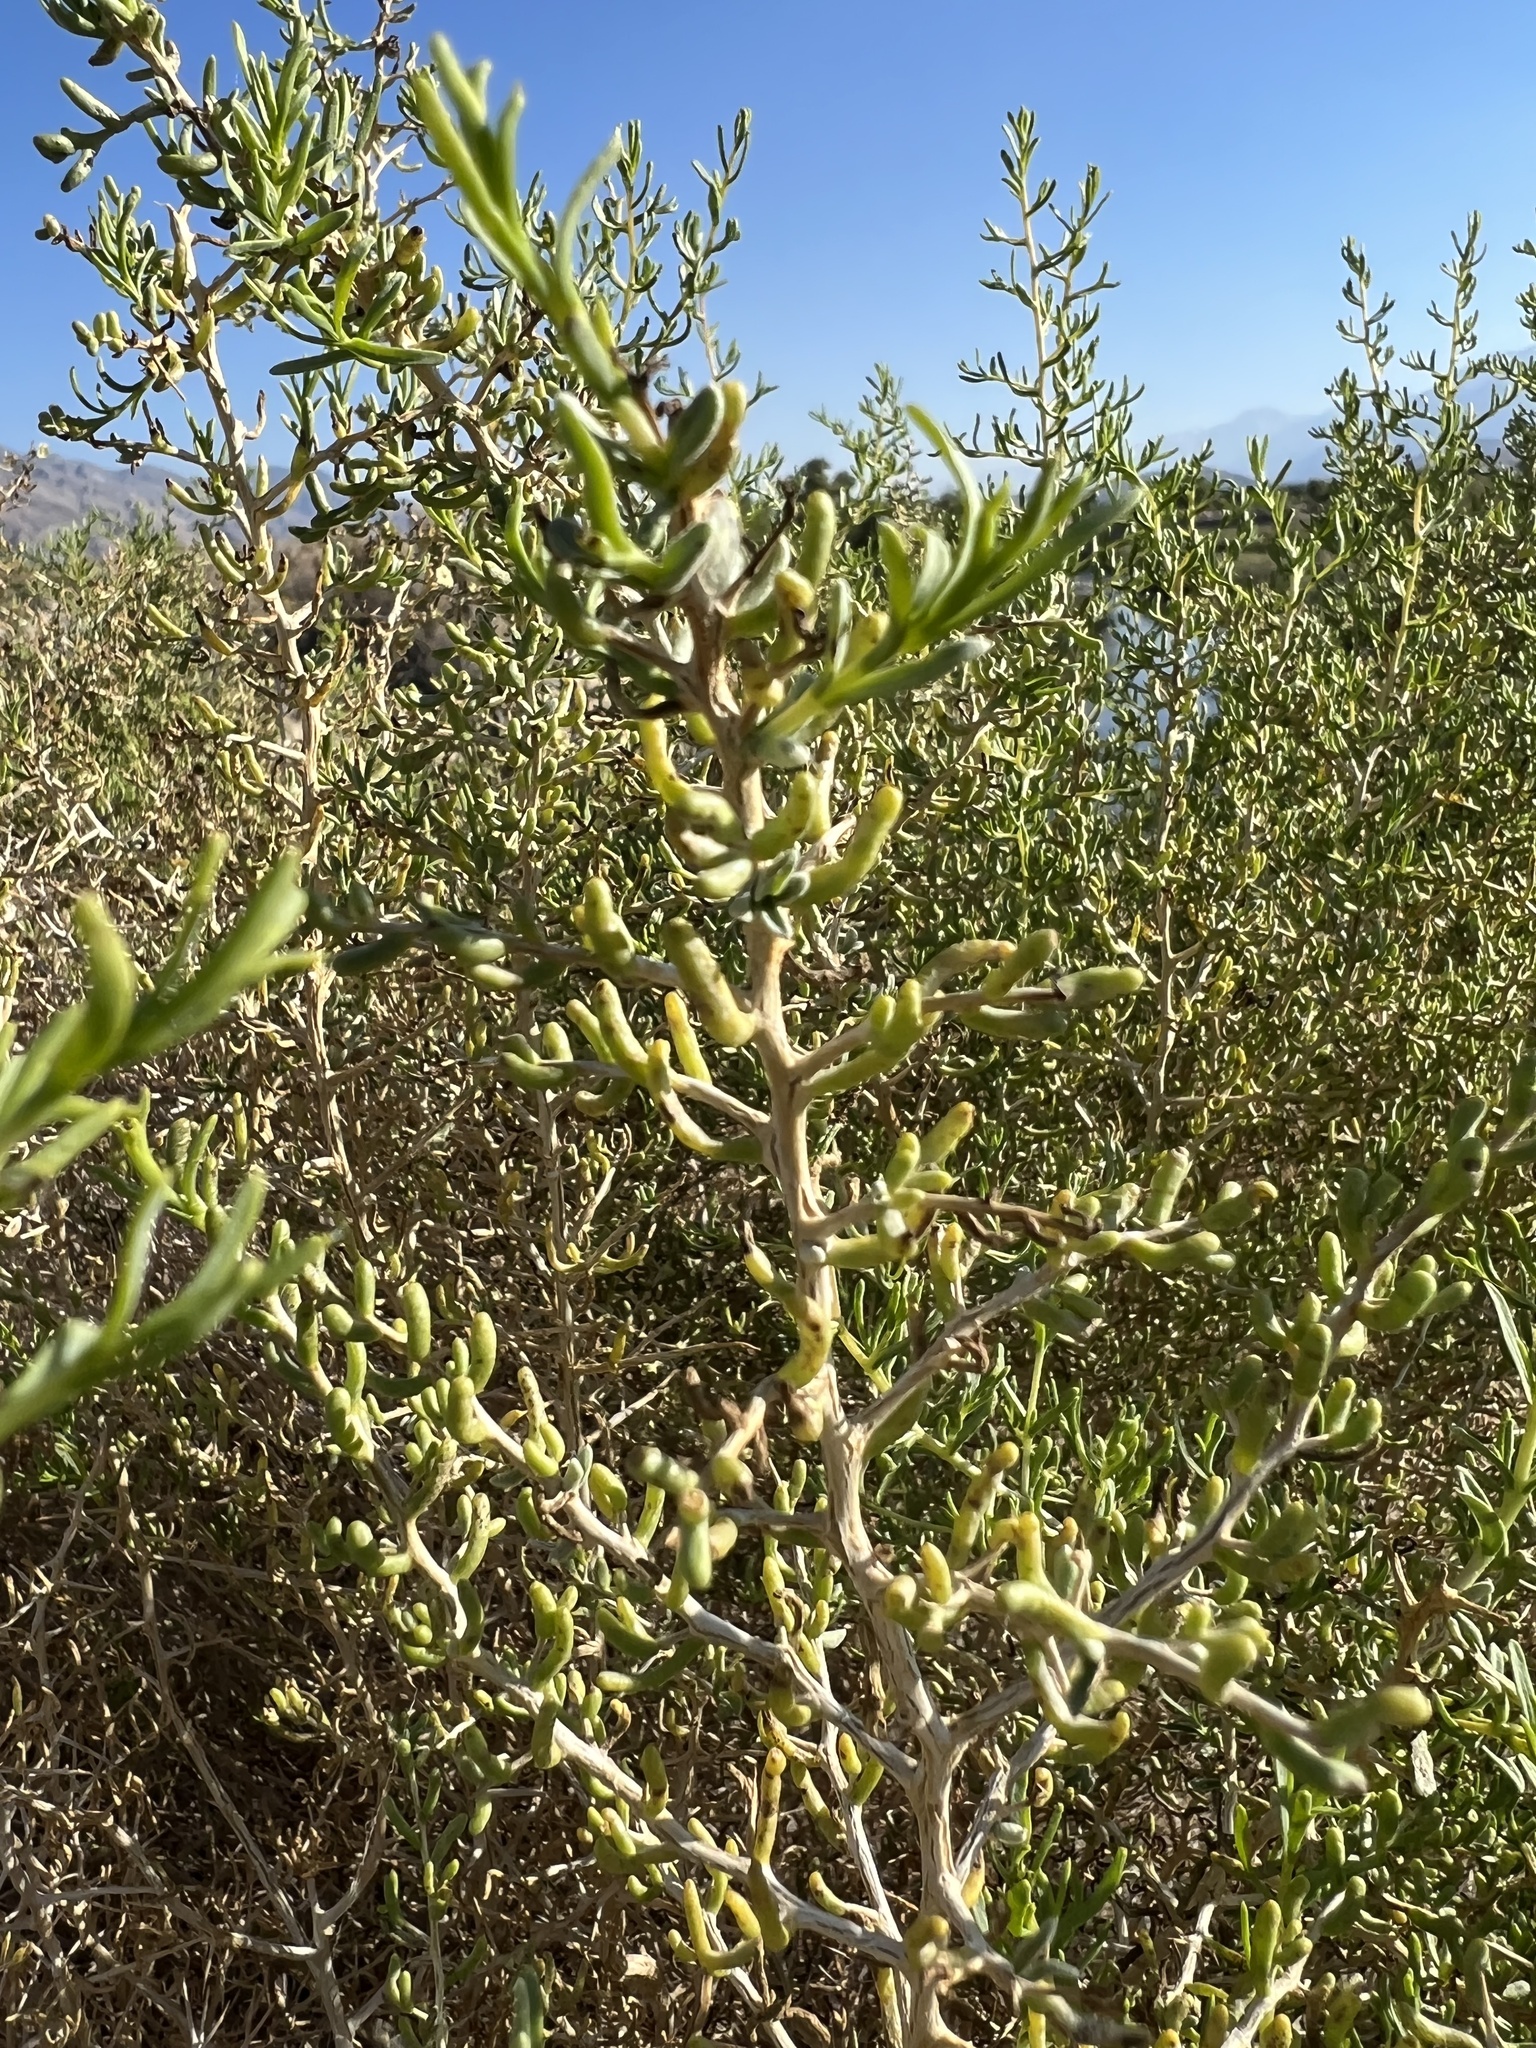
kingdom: Plantae
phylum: Tracheophyta
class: Magnoliopsida
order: Caryophyllales
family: Sarcobataceae
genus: Sarcobatus
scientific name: Sarcobatus vermiculatus
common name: Greasewood
